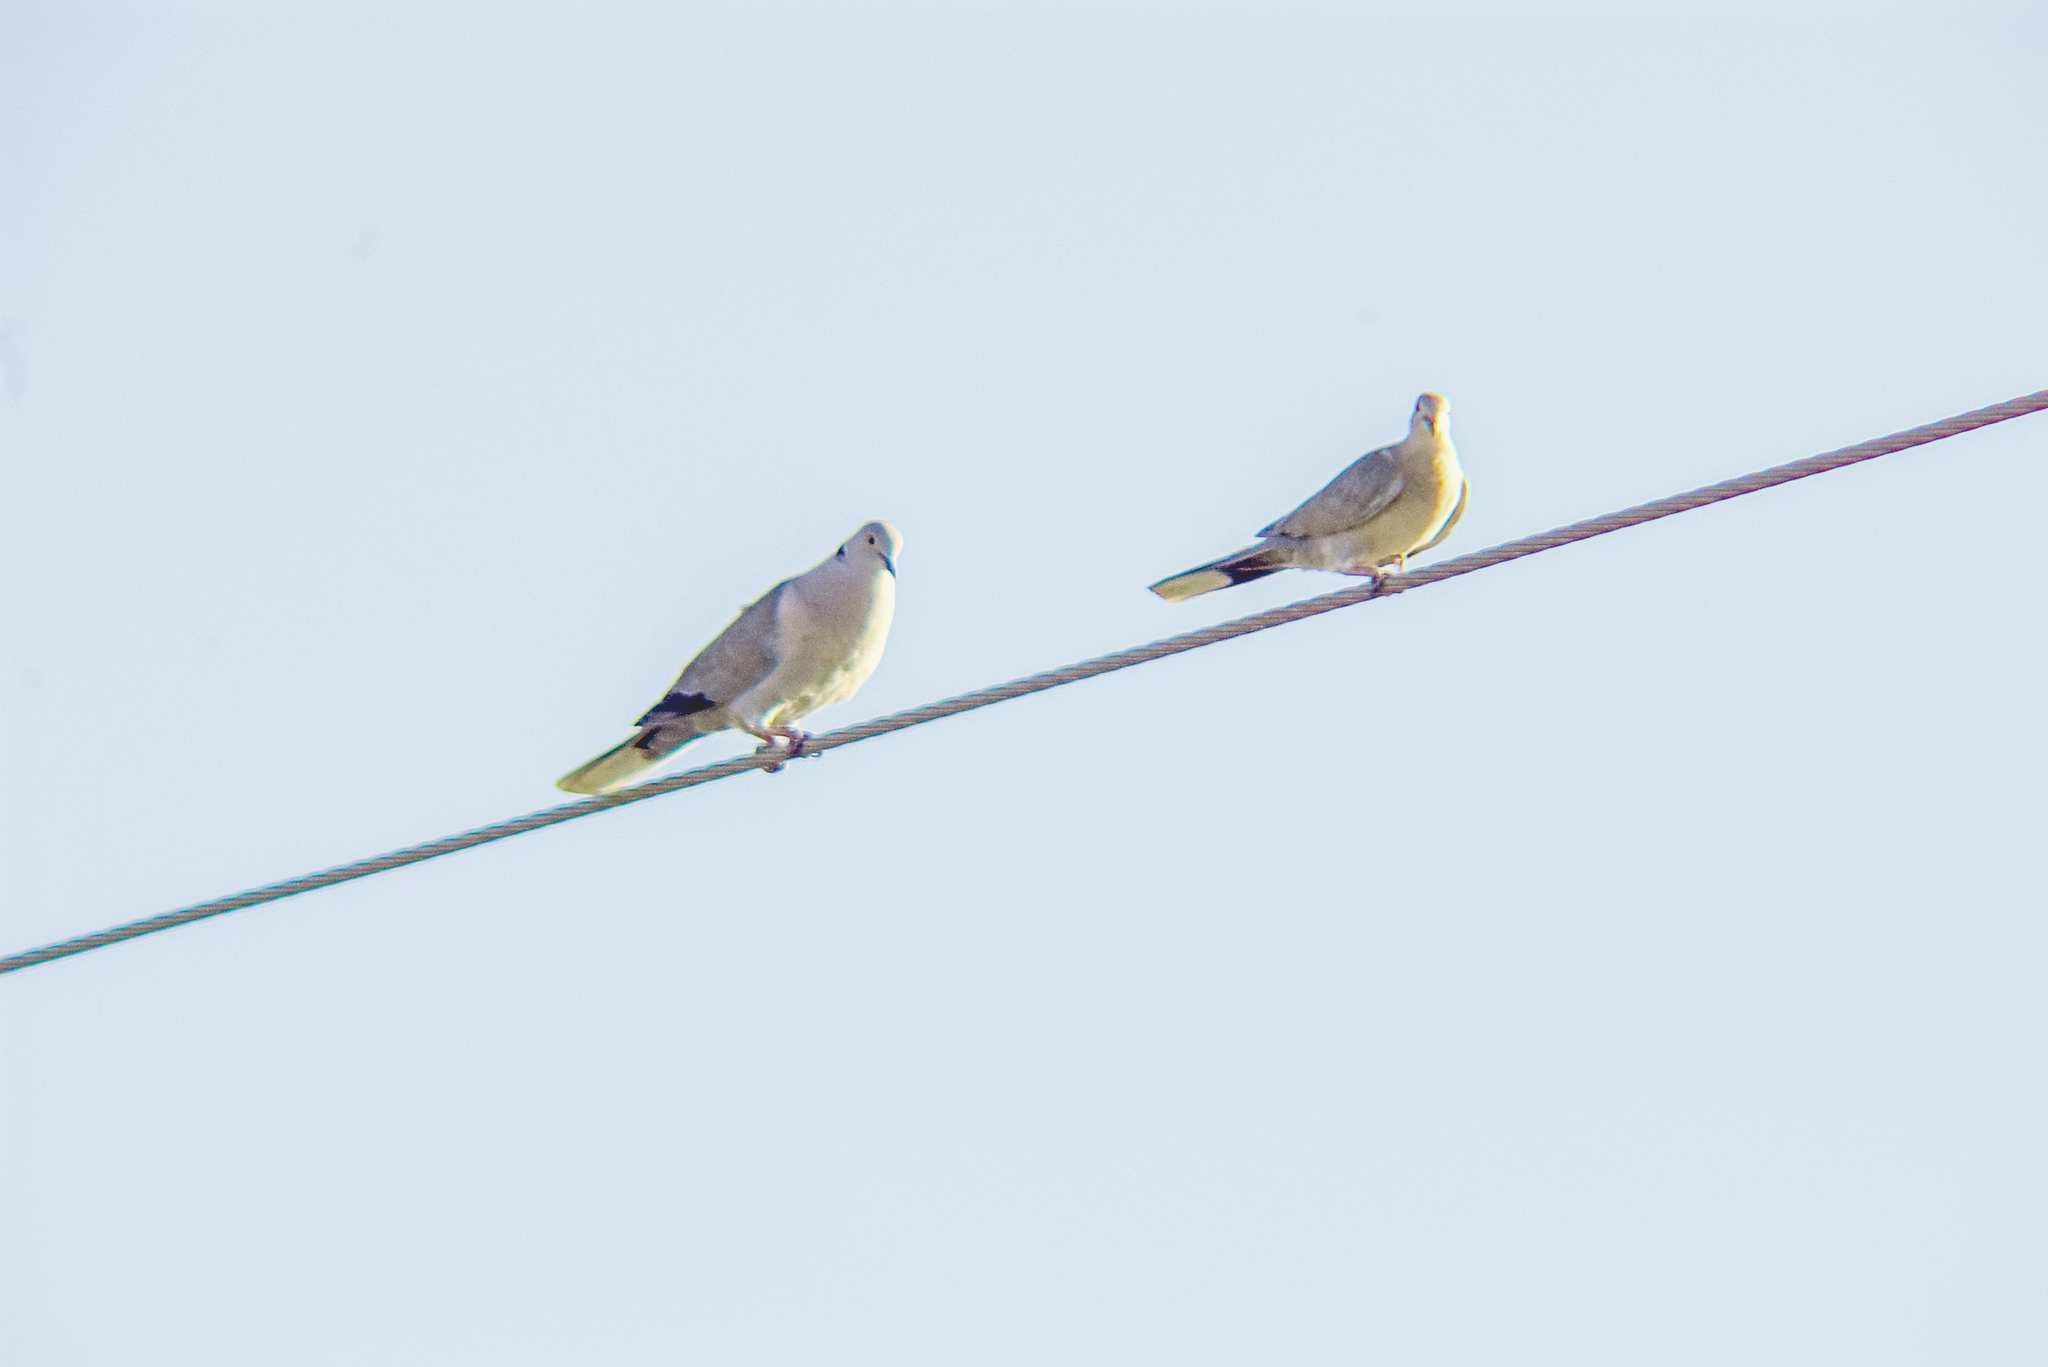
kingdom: Animalia
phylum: Chordata
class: Aves
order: Columbiformes
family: Columbidae
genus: Streptopelia
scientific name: Streptopelia decaocto
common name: Eurasian collared dove
